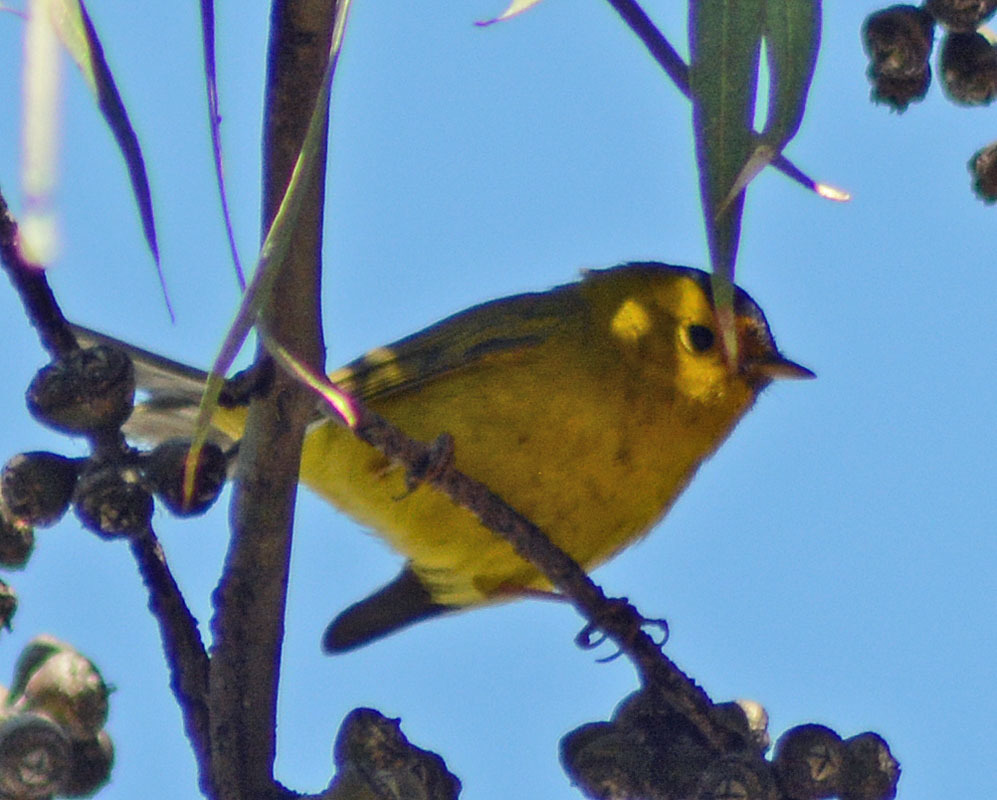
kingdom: Animalia
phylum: Chordata
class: Aves
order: Passeriformes
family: Parulidae
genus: Cardellina
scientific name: Cardellina pusilla
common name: Wilson's warbler
